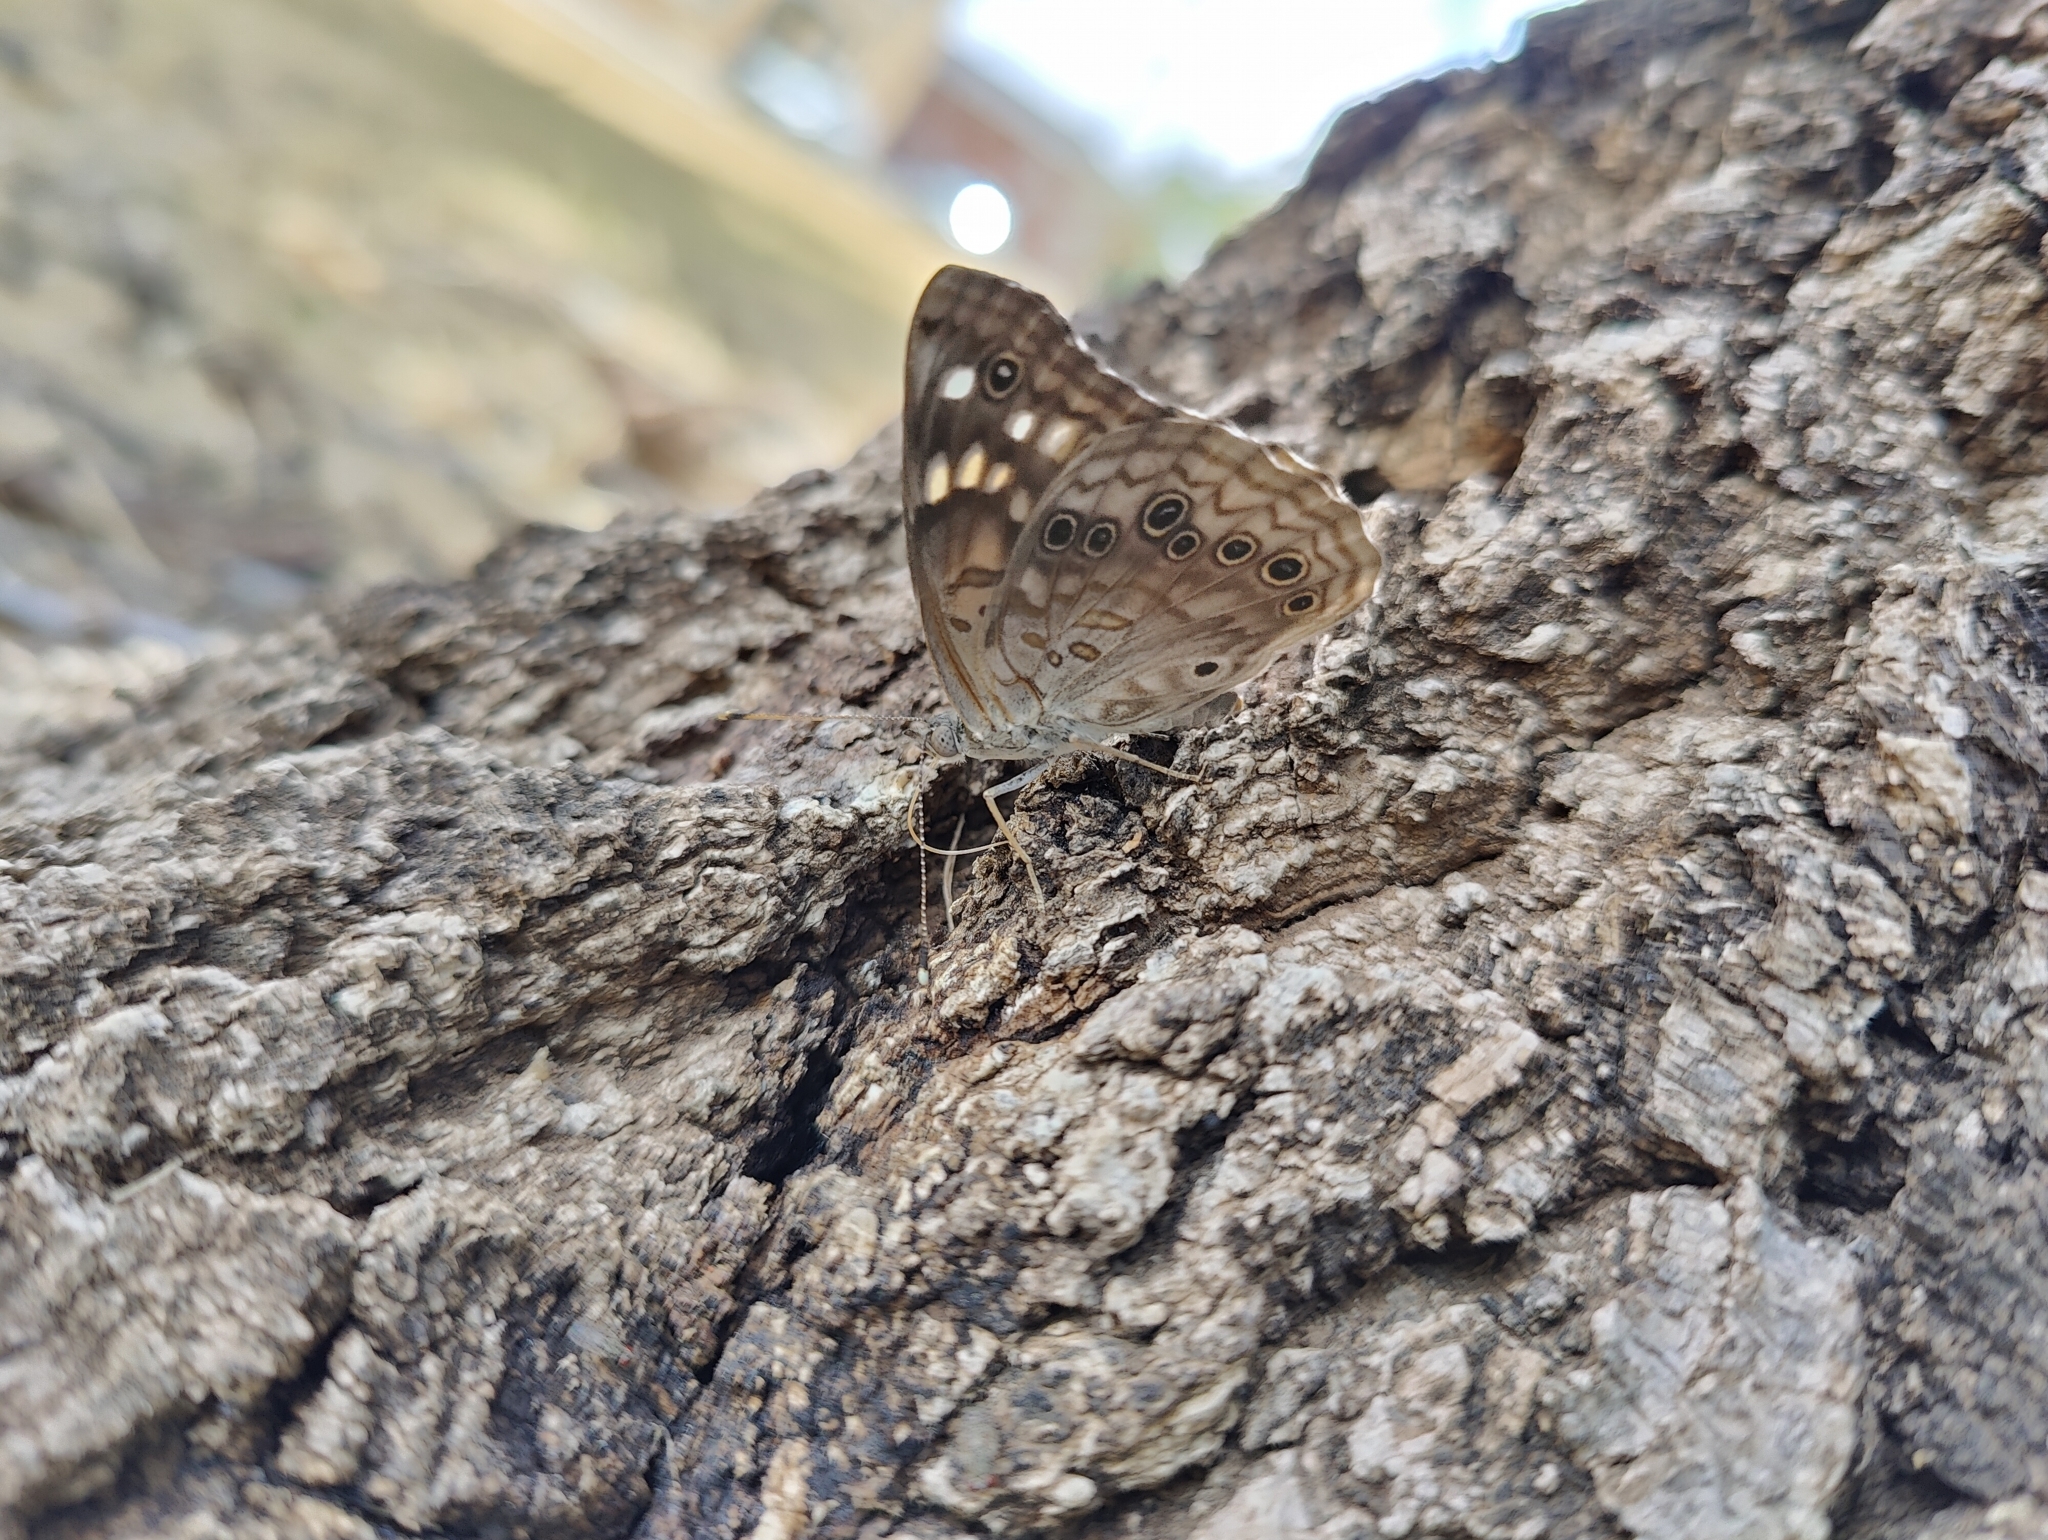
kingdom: Animalia
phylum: Arthropoda
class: Insecta
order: Lepidoptera
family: Nymphalidae
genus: Asterocampa
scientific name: Asterocampa celtis
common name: Hackberry emperor
